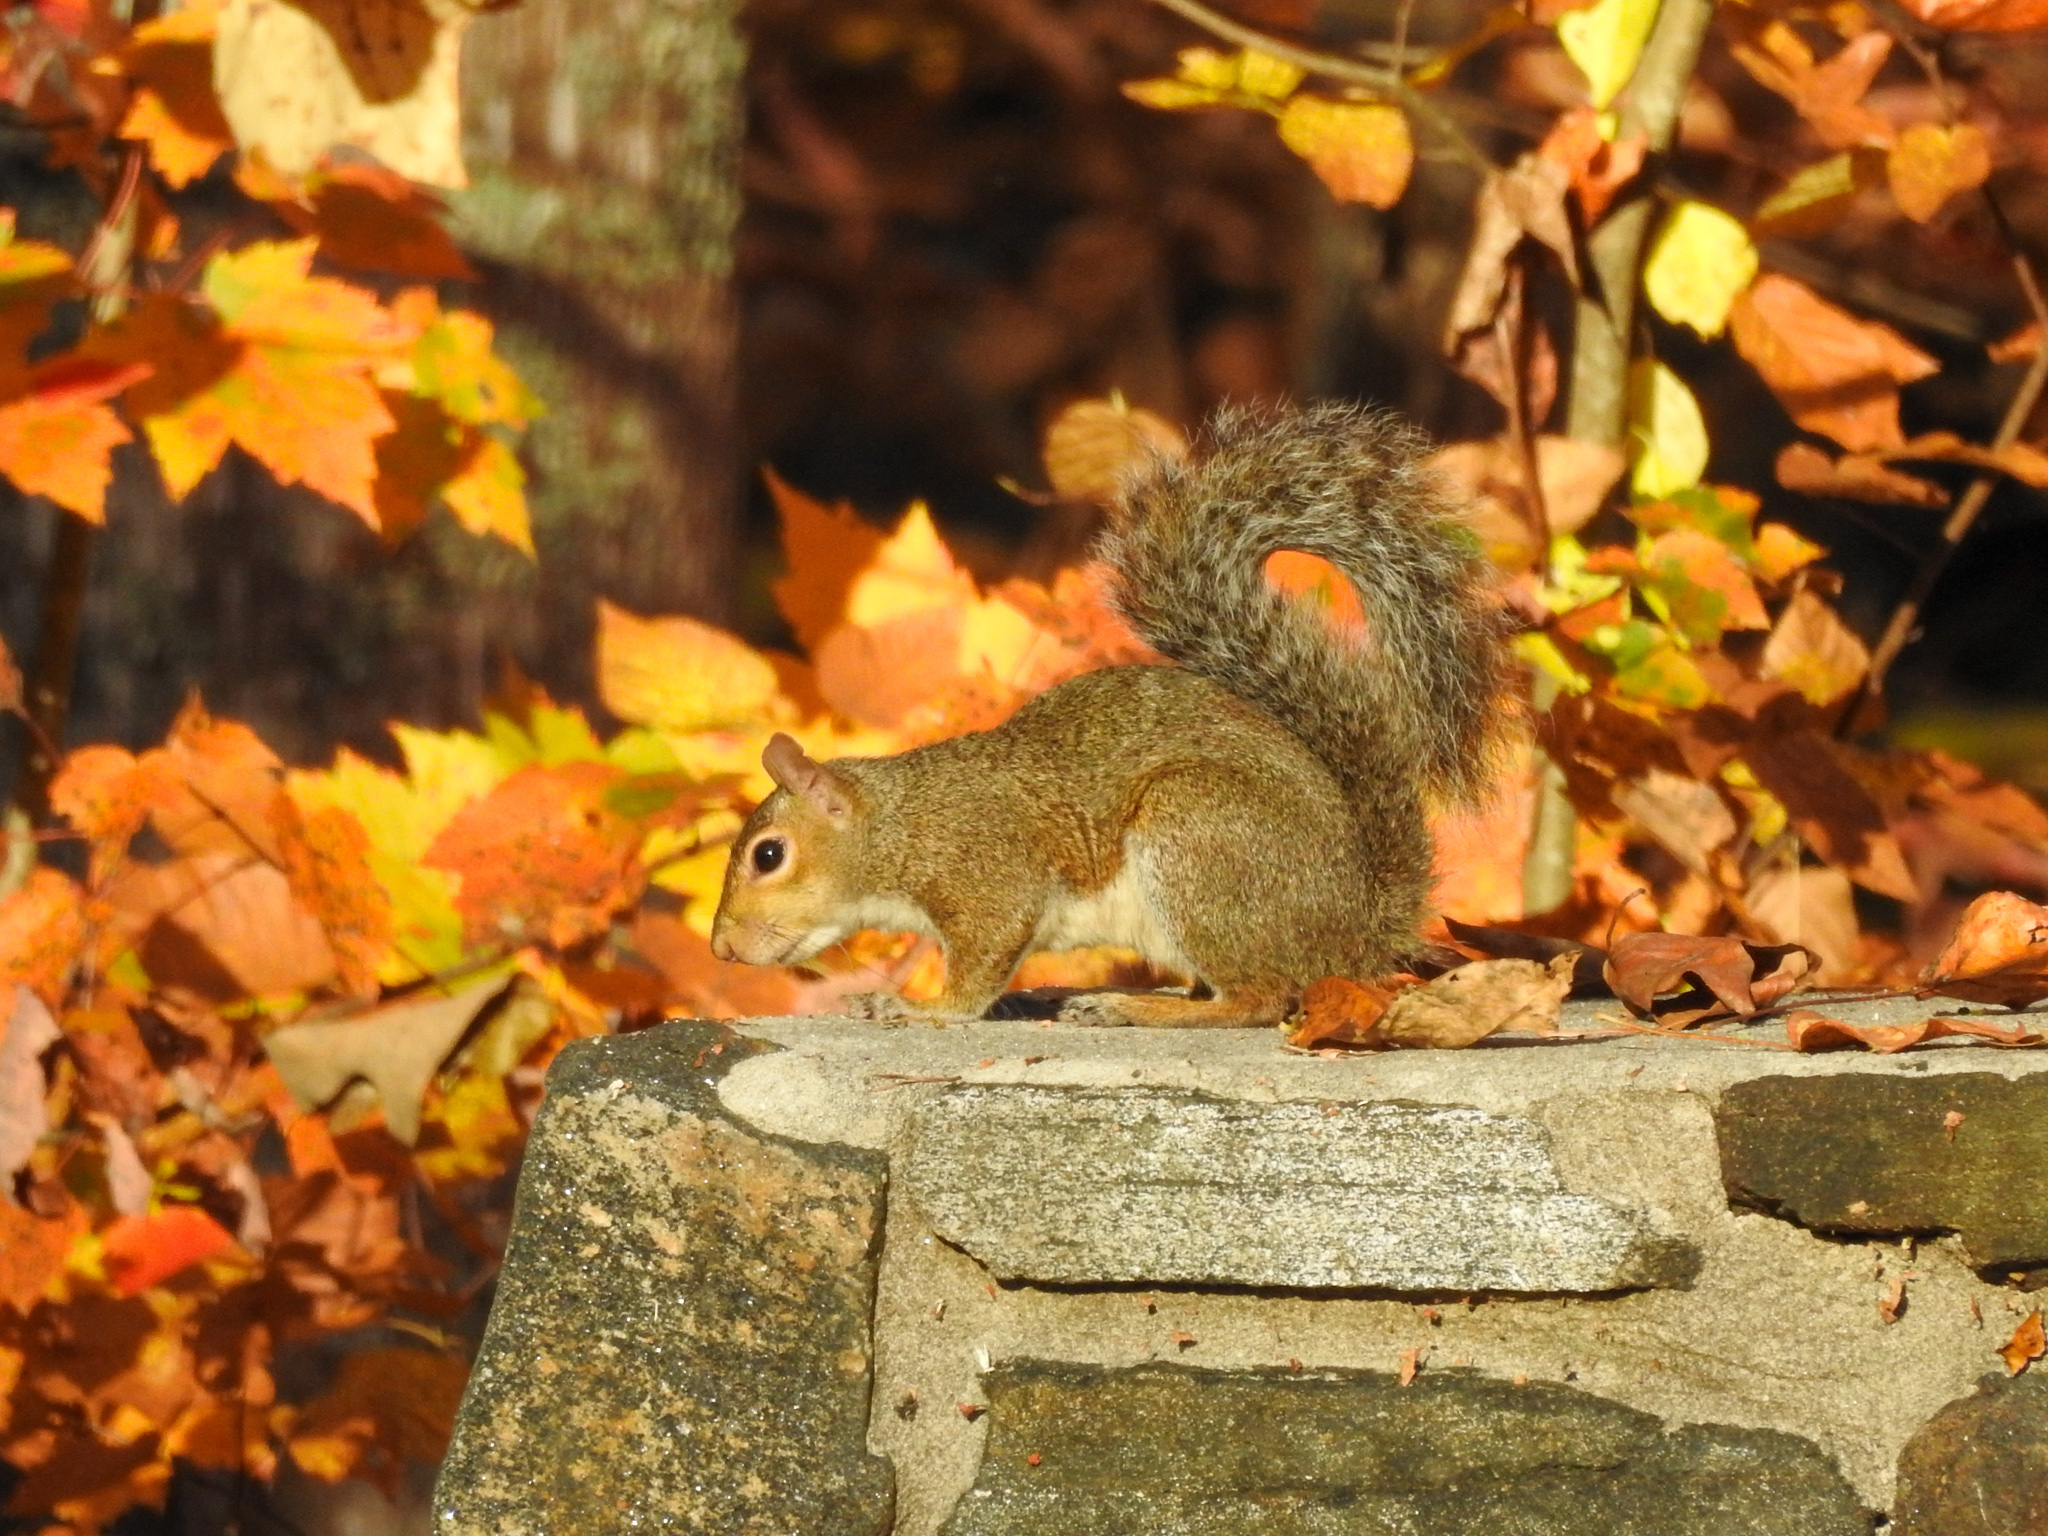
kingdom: Animalia
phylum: Chordata
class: Mammalia
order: Rodentia
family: Sciuridae
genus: Sciurus
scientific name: Sciurus carolinensis
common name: Eastern gray squirrel
